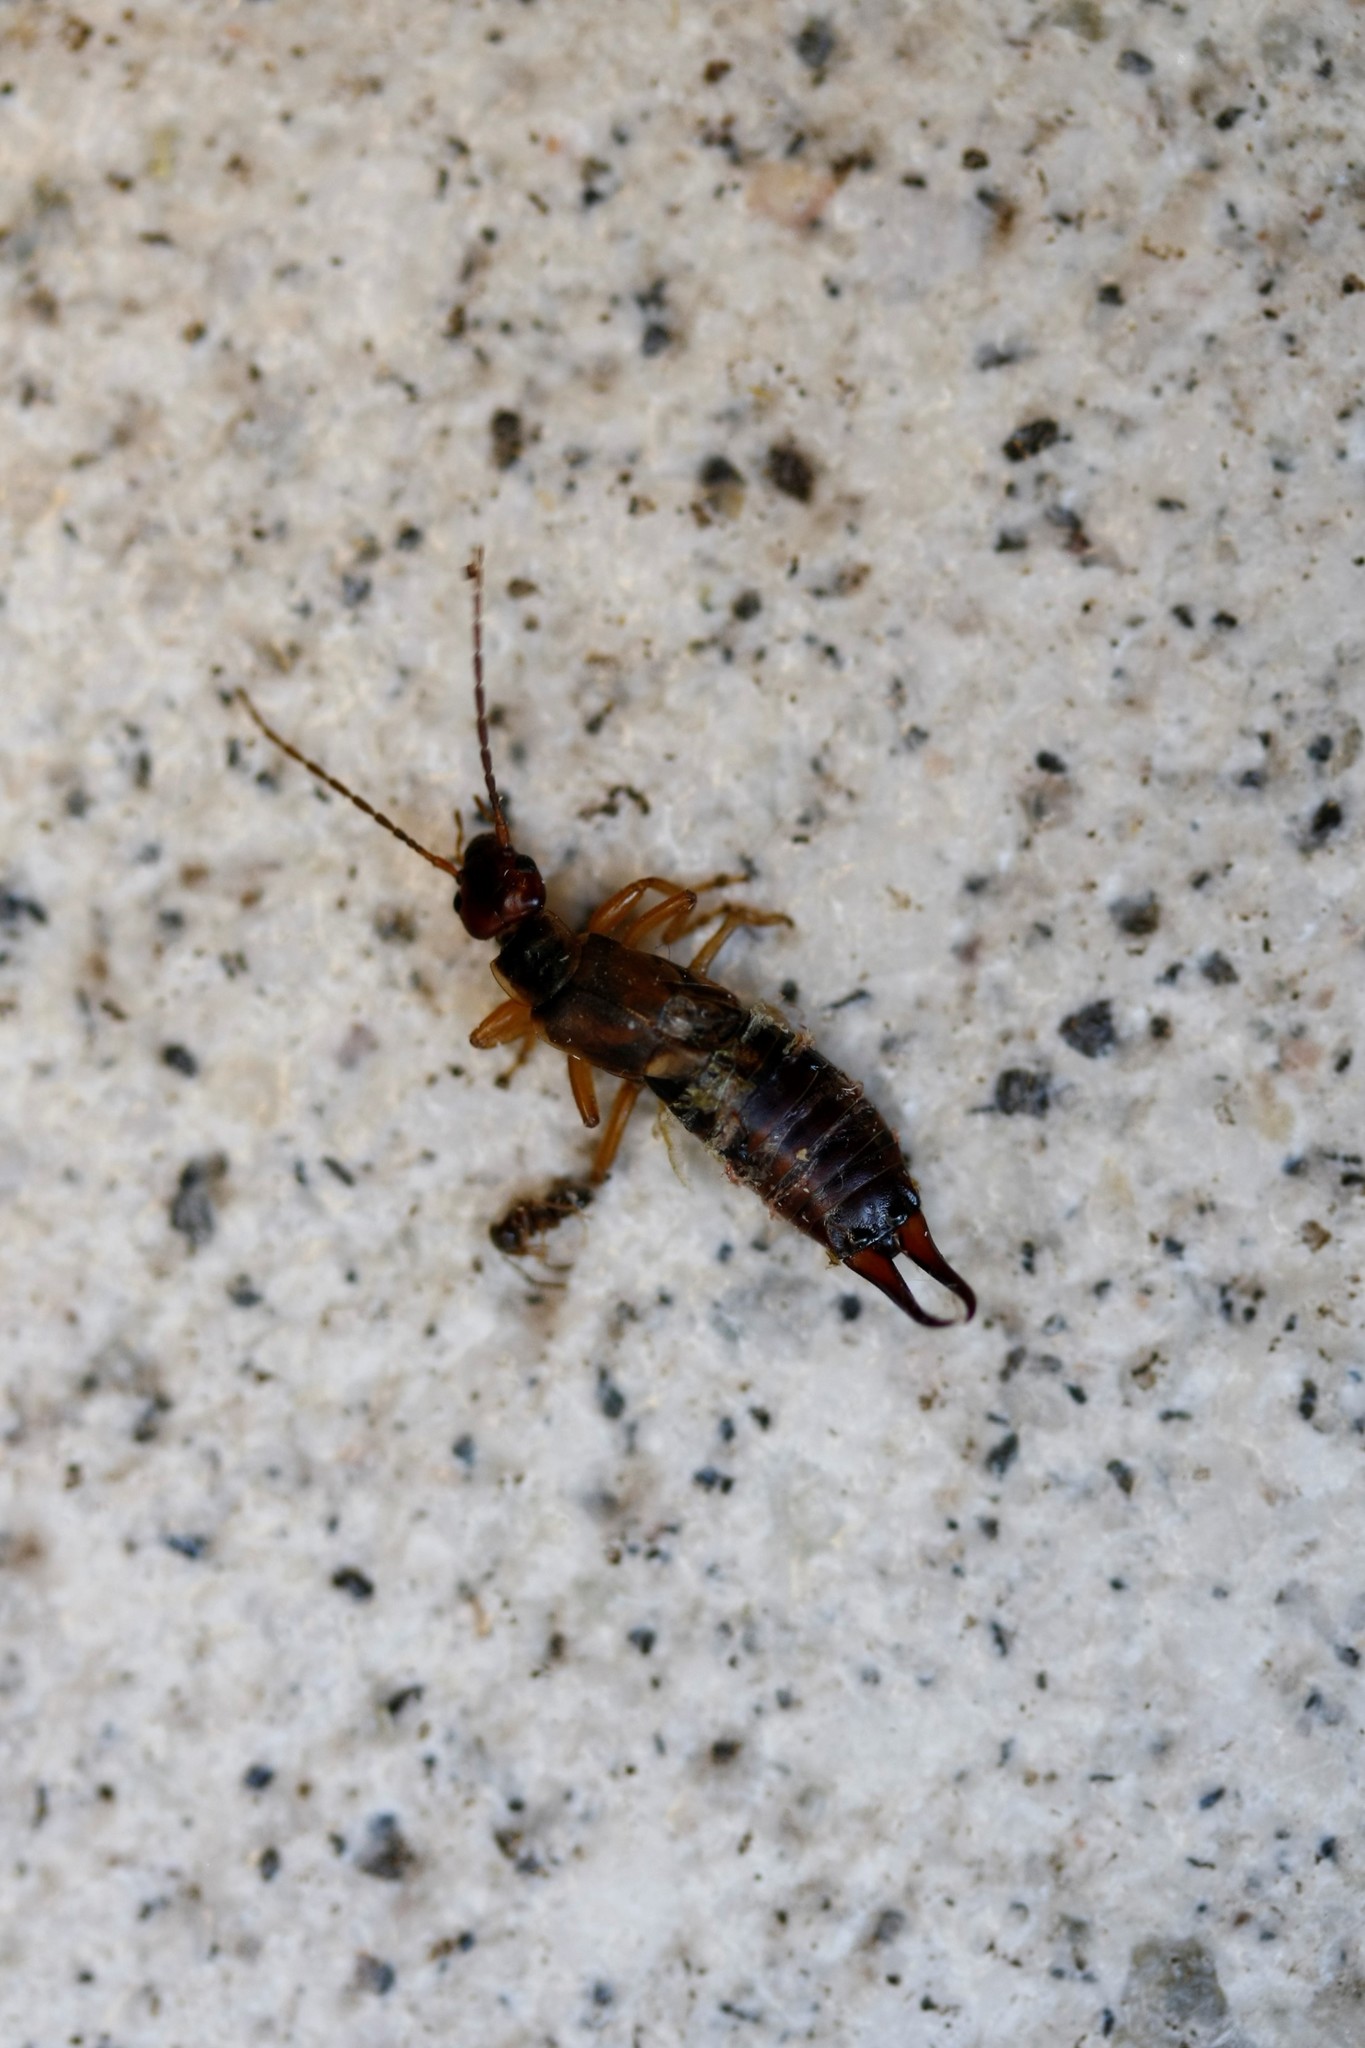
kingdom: Animalia
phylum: Arthropoda
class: Insecta
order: Dermaptera
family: Forficulidae
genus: Forficula
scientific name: Forficula
